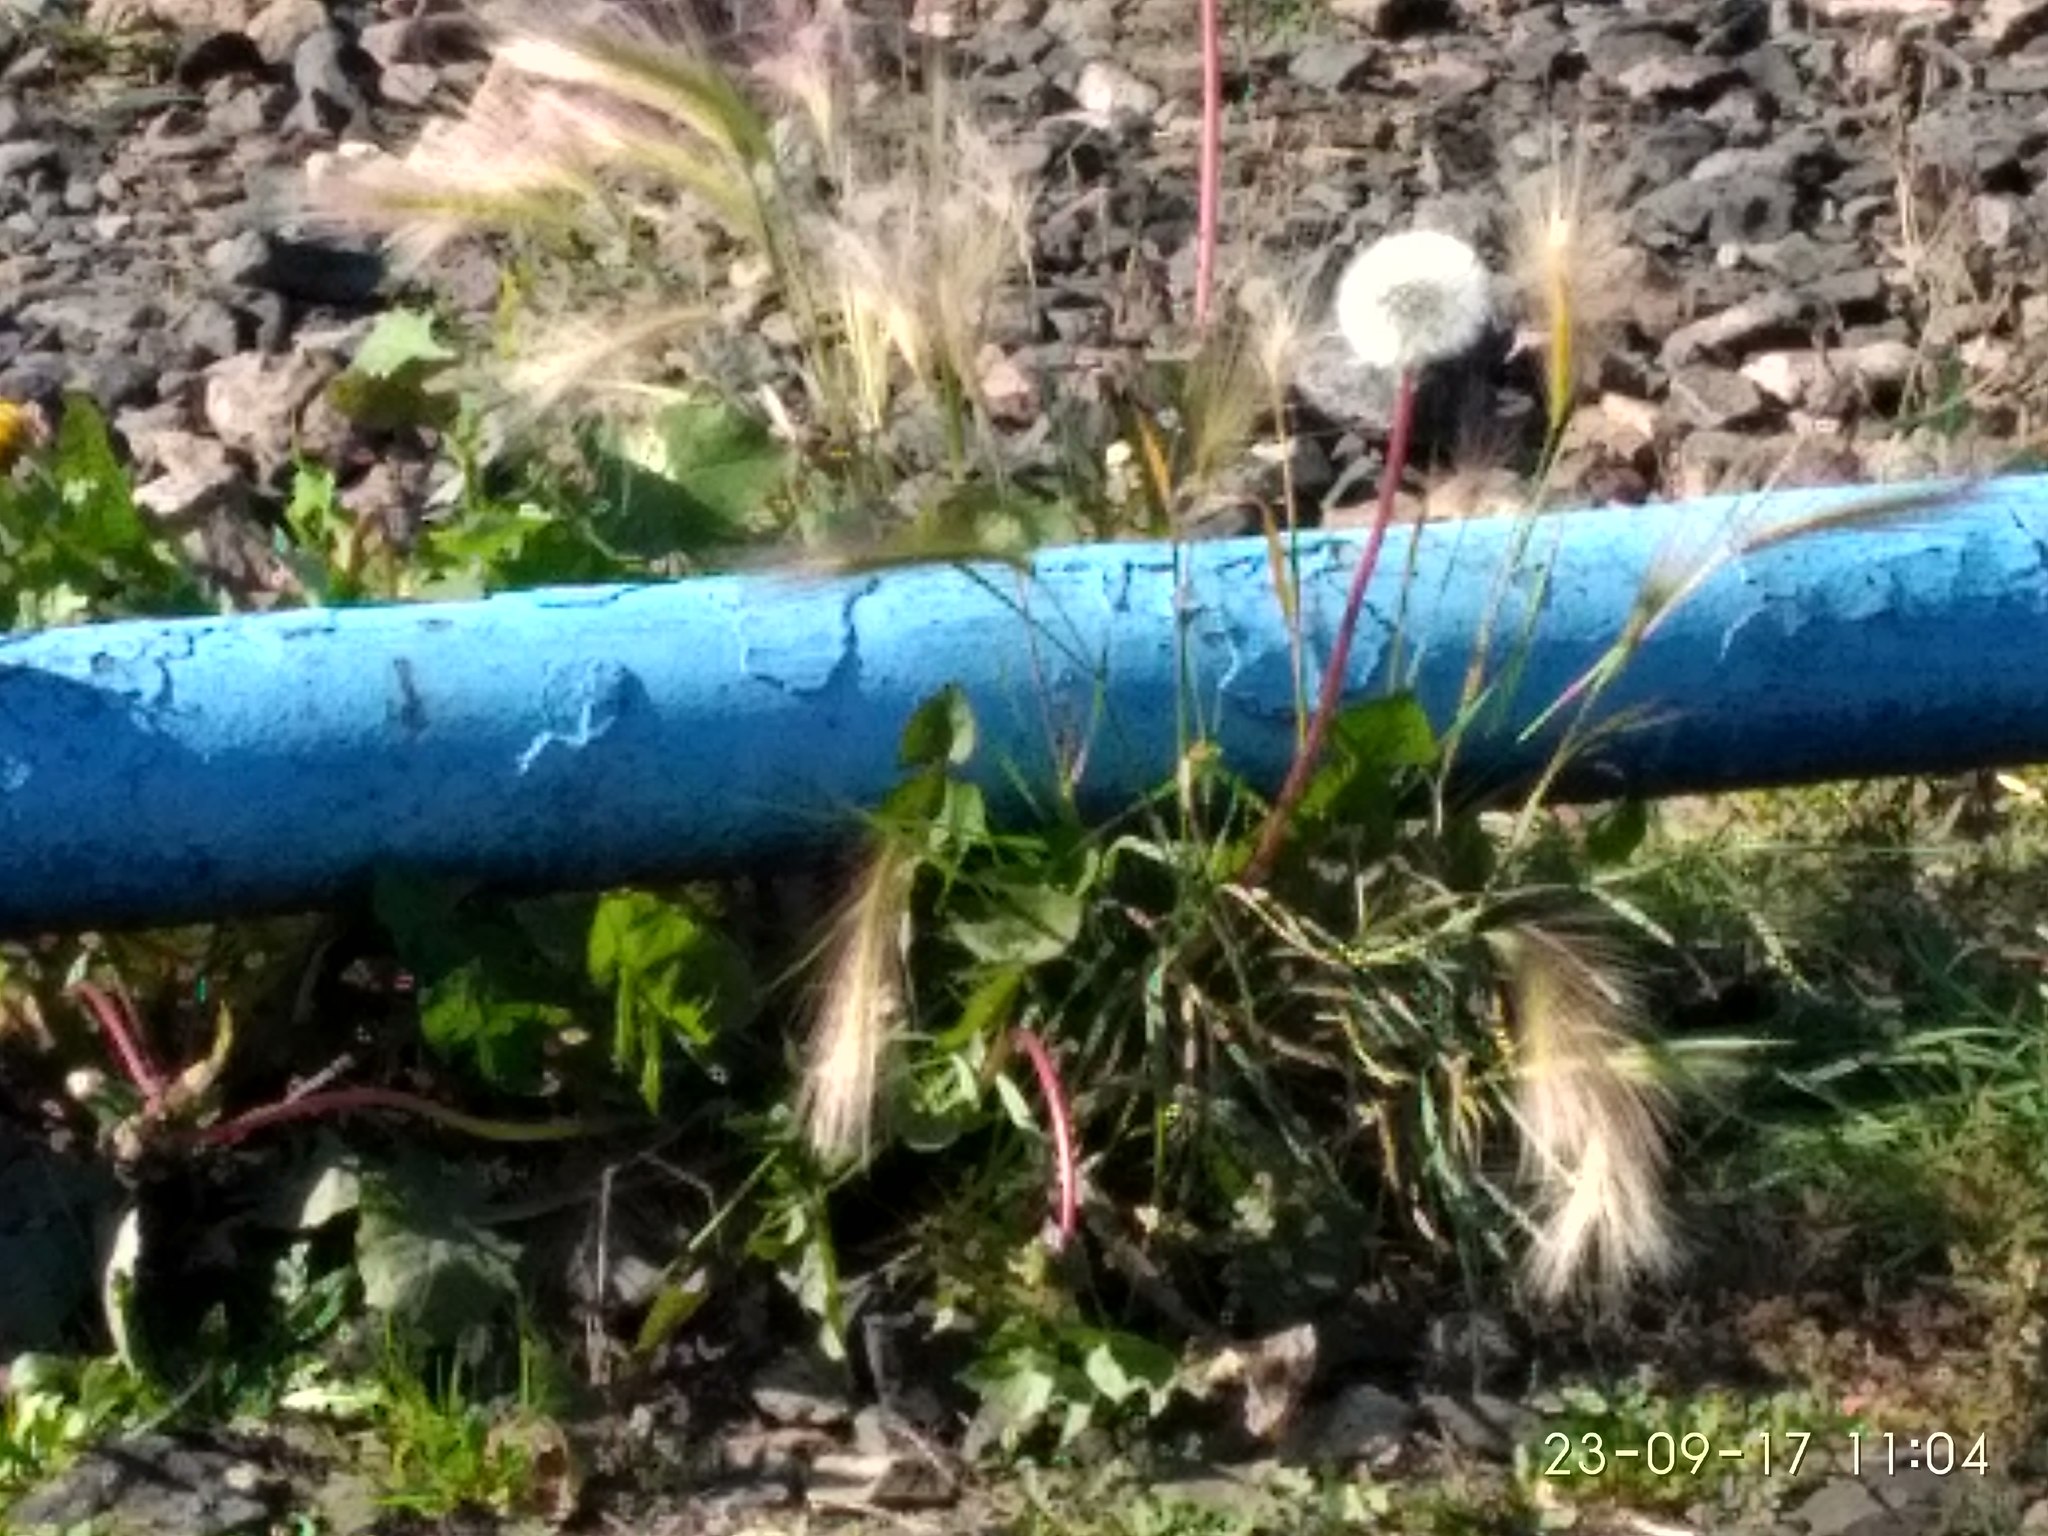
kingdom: Plantae
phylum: Tracheophyta
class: Liliopsida
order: Poales
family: Poaceae
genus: Hordeum
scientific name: Hordeum jubatum
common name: Foxtail barley
